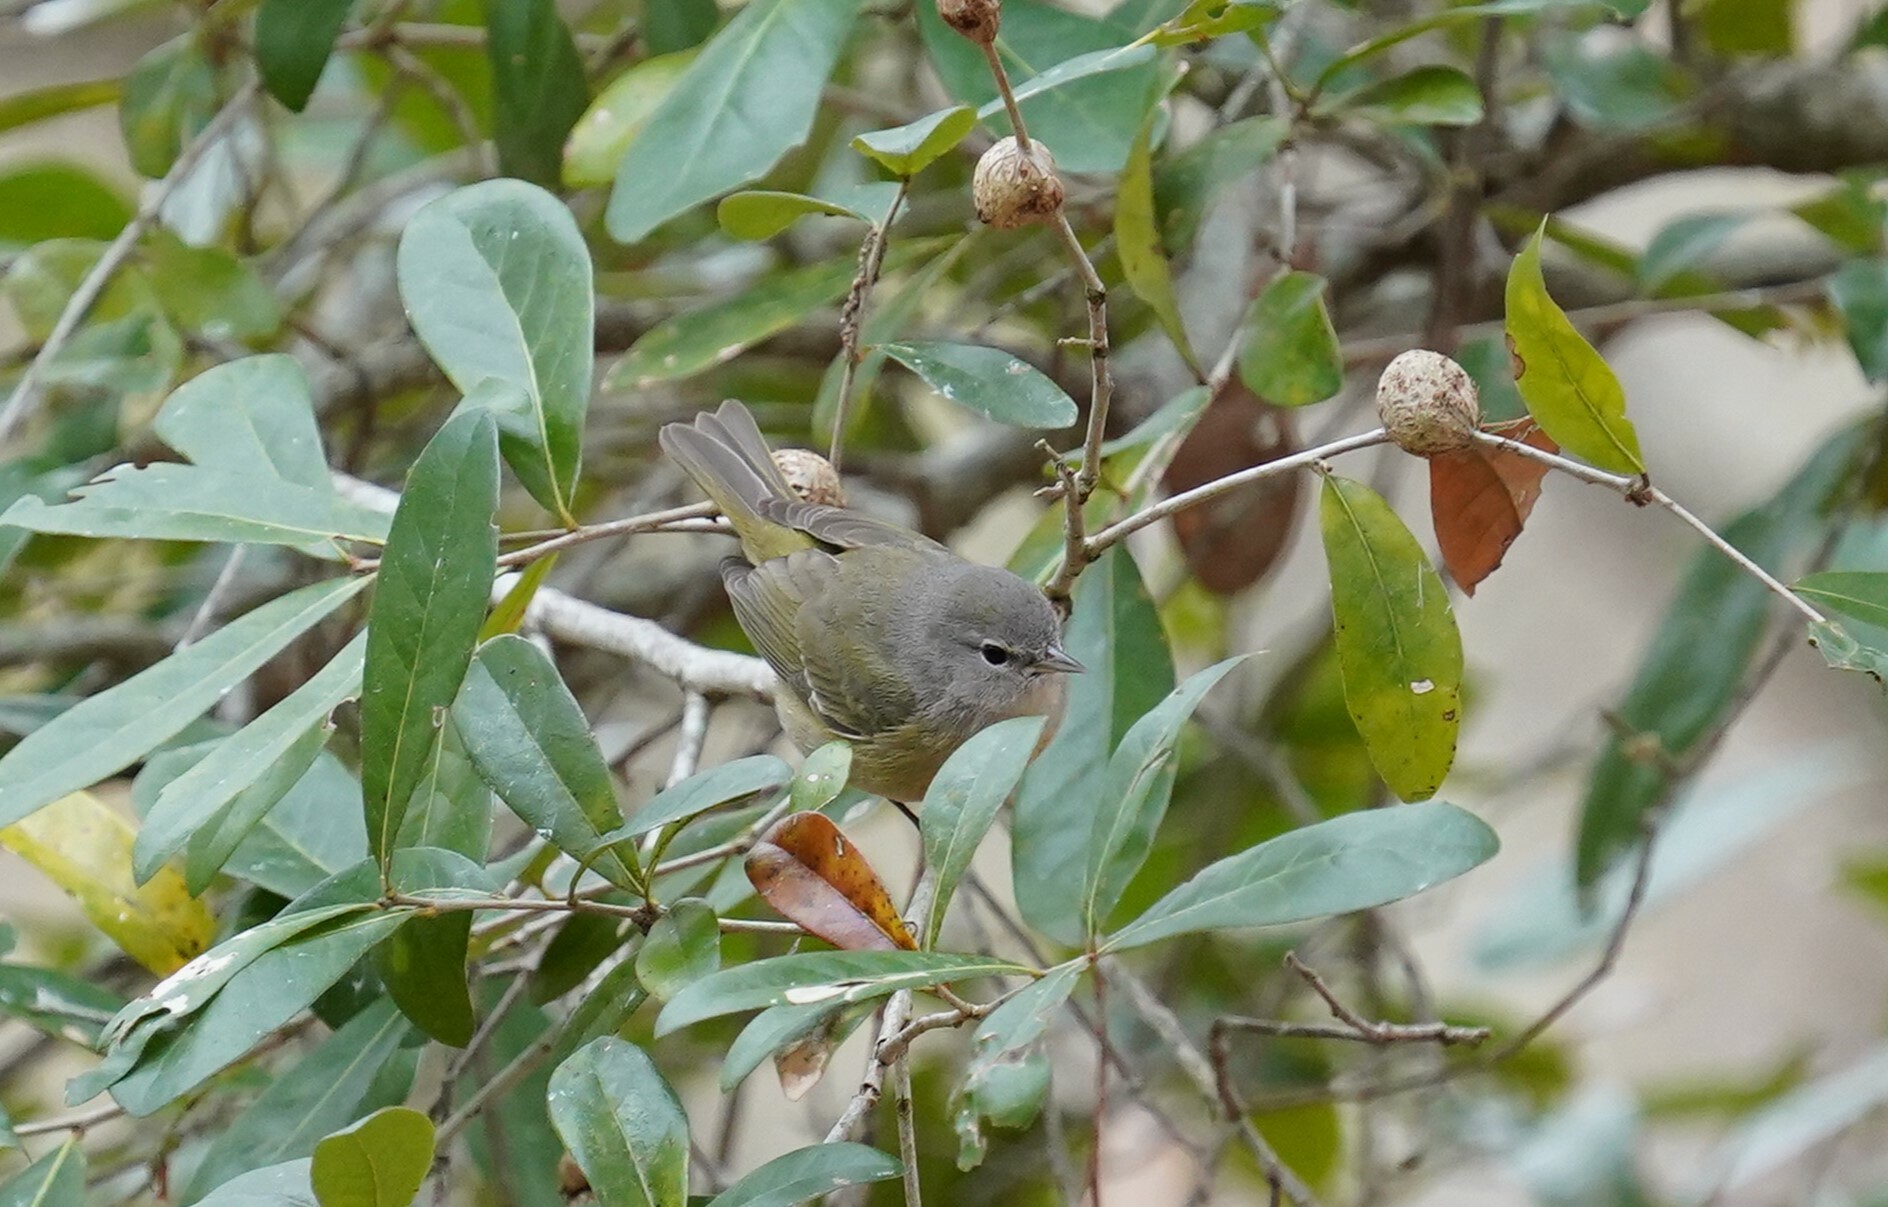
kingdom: Animalia
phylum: Chordata
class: Aves
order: Passeriformes
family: Parulidae
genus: Leiothlypis
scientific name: Leiothlypis celata
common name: Orange-crowned warbler
